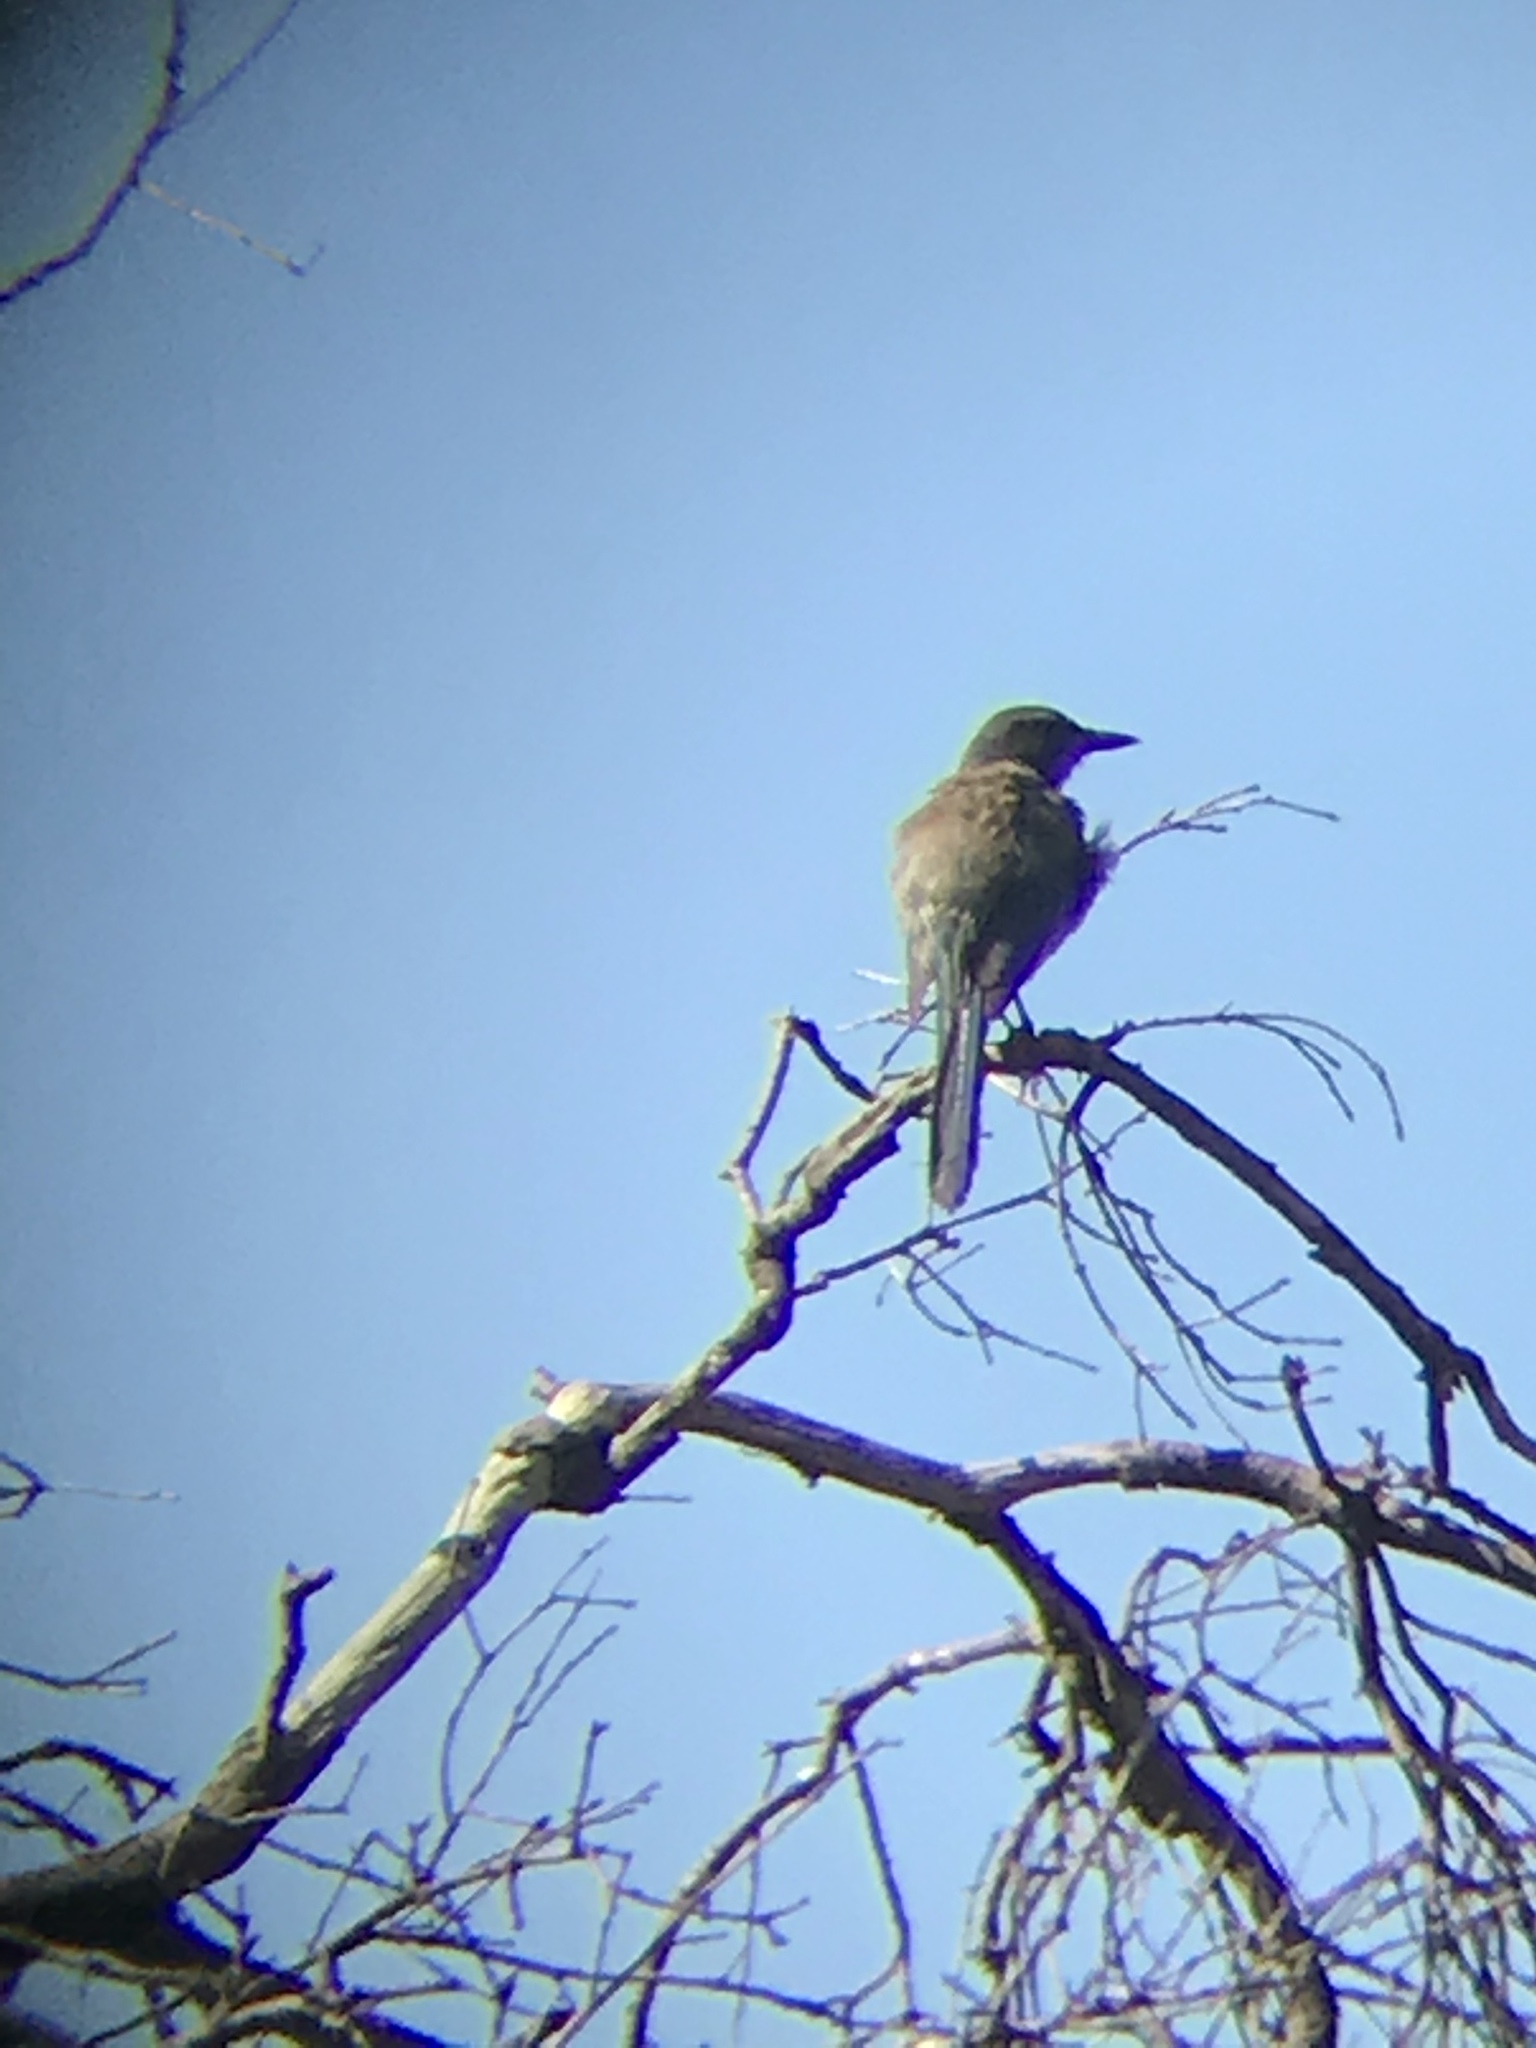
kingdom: Animalia
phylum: Chordata
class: Aves
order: Passeriformes
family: Corvidae
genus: Aphelocoma
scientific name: Aphelocoma californica
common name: California scrub-jay
